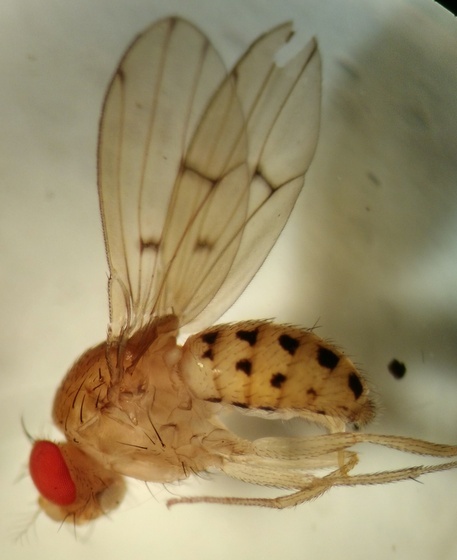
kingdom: Animalia
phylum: Arthropoda
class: Insecta
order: Diptera
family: Drosophilidae
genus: Drosophila
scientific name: Drosophila quinaria
